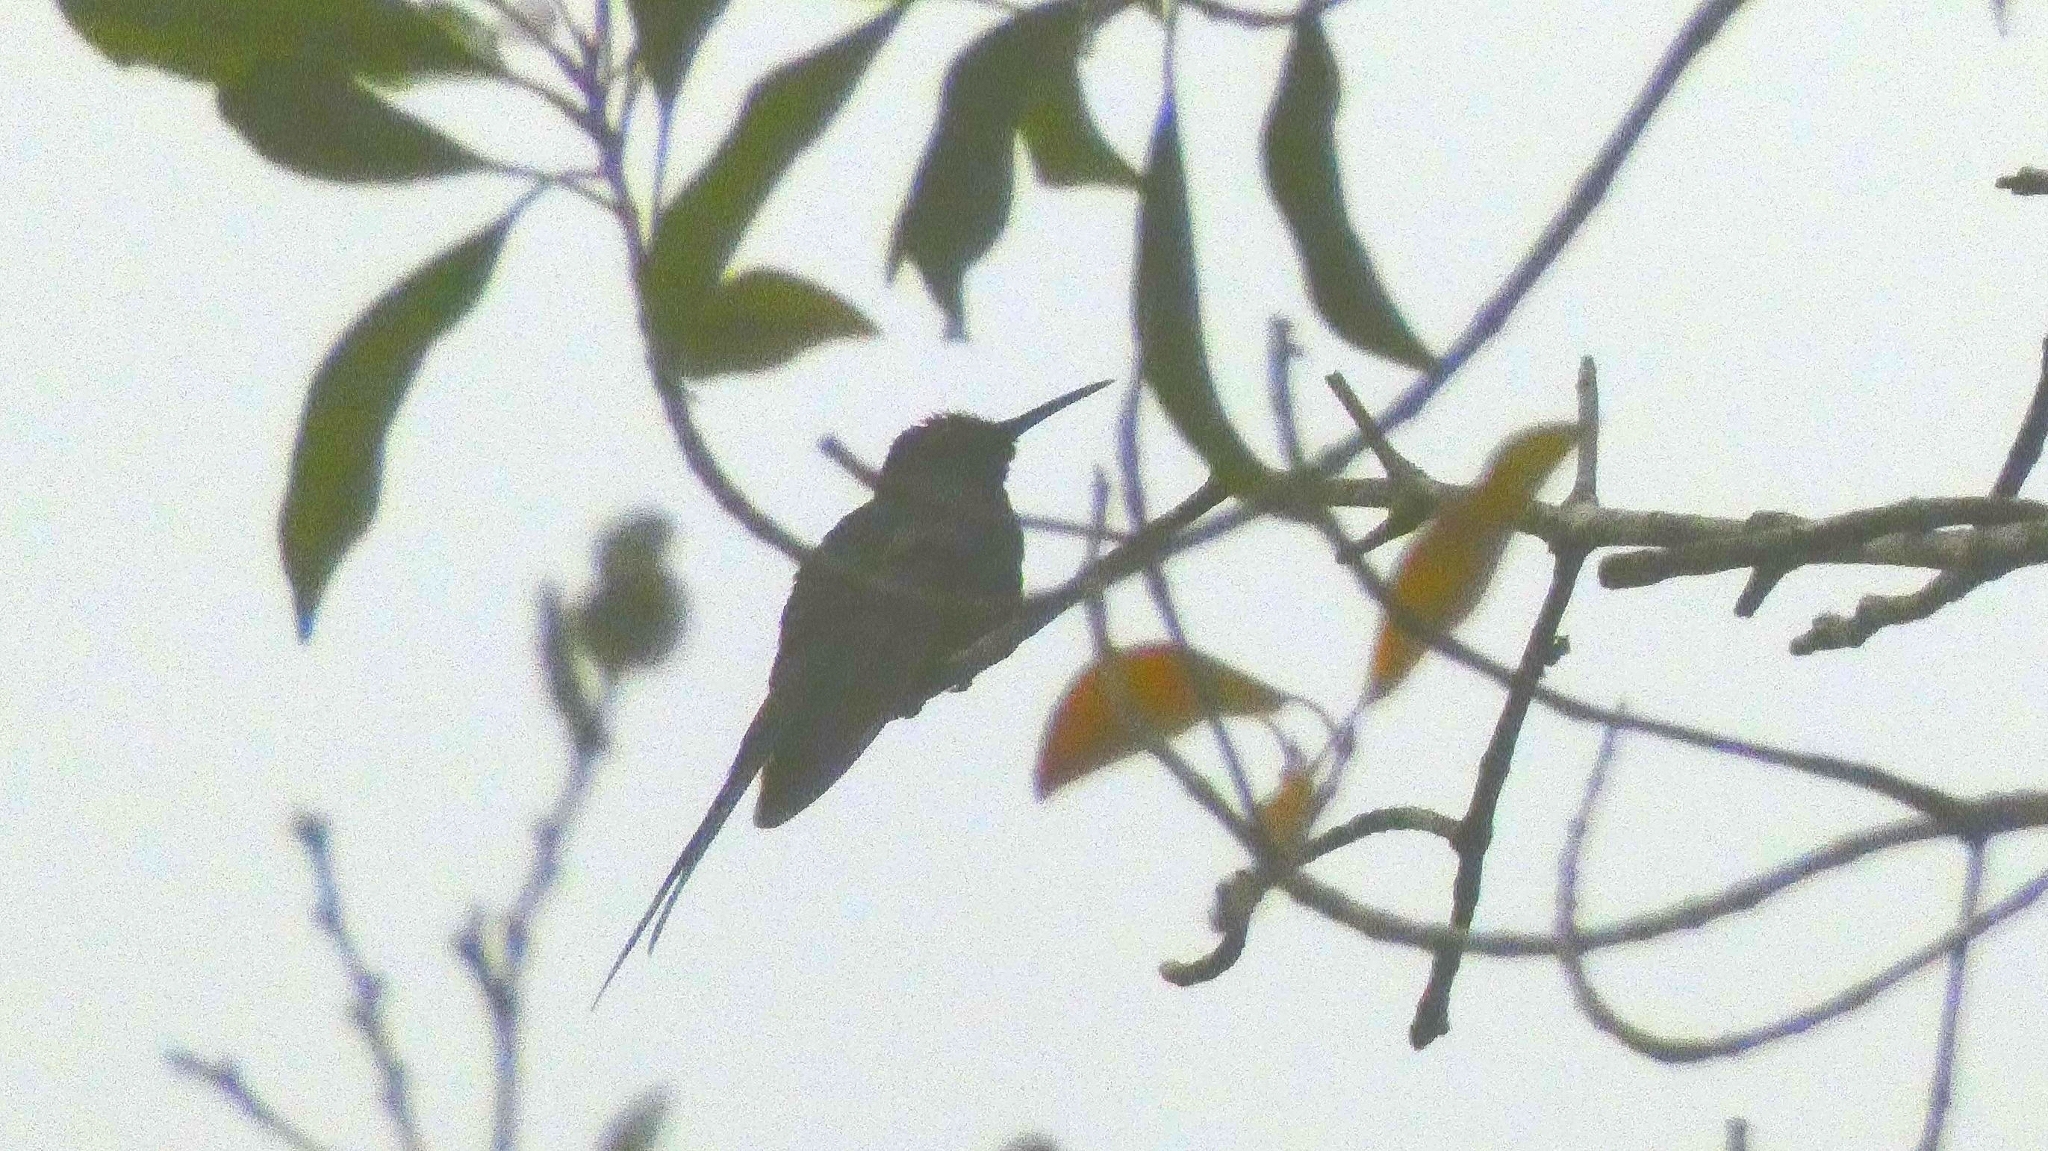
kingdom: Animalia
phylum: Chordata
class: Aves
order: Apodiformes
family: Trochilidae
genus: Eupetomena
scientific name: Eupetomena macroura
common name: Swallow-tailed hummingbird
